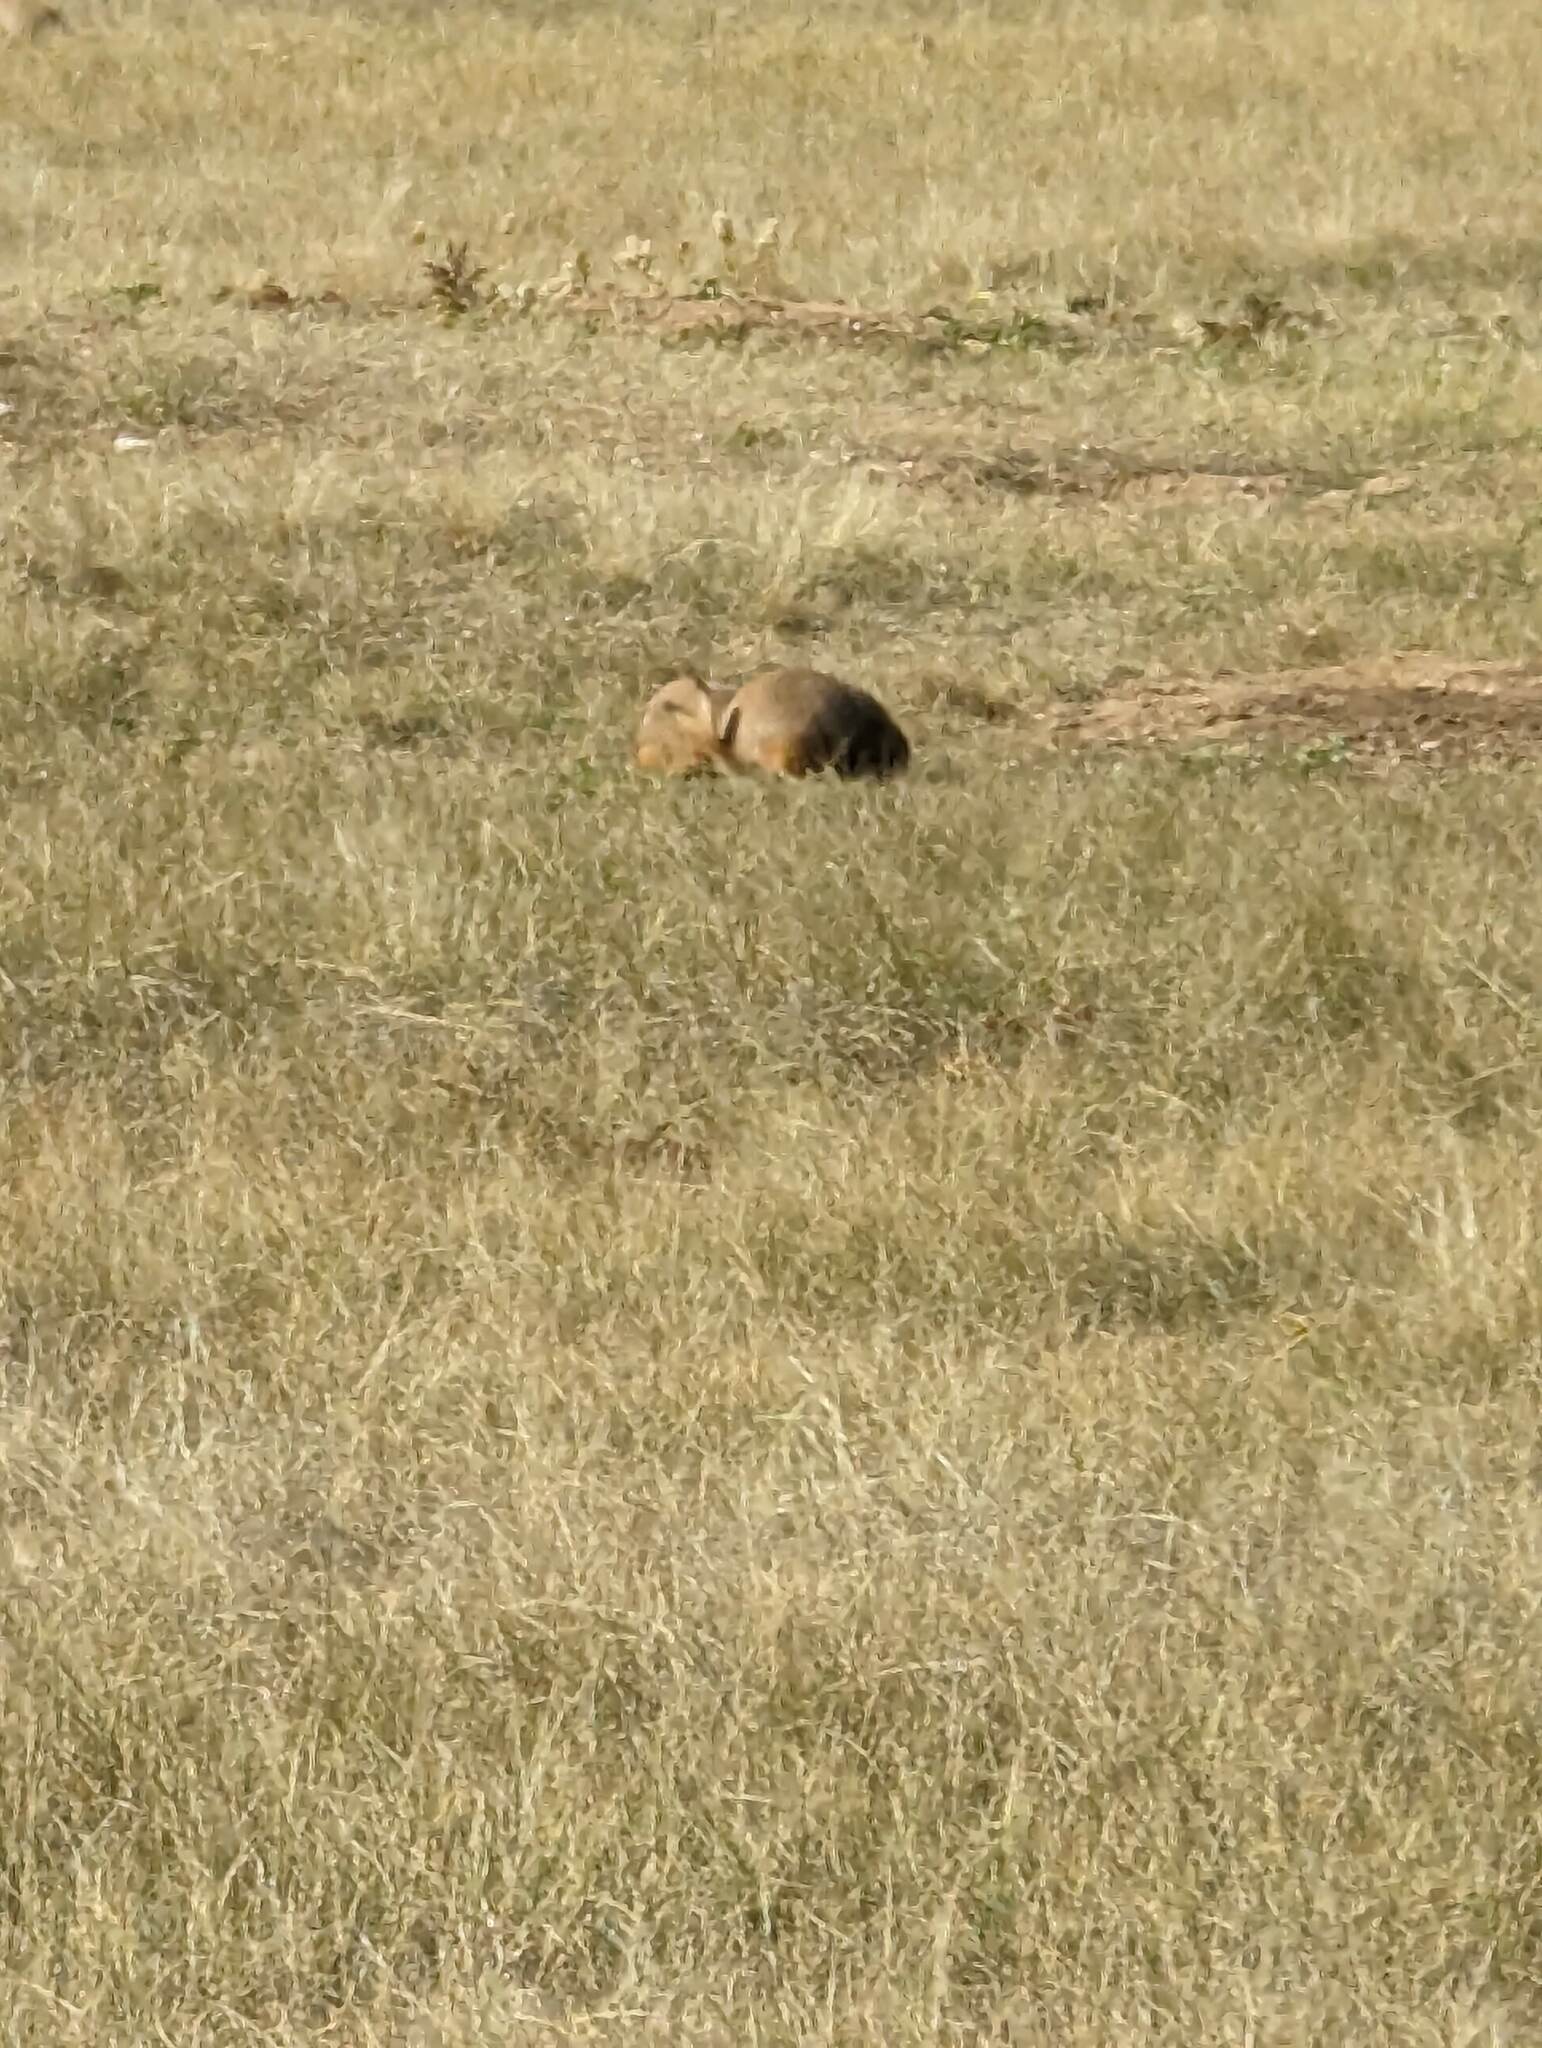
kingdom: Animalia
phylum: Chordata
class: Mammalia
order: Rodentia
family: Sciuridae
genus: Cynomys
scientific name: Cynomys ludovicianus
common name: Black-tailed prairie dog
